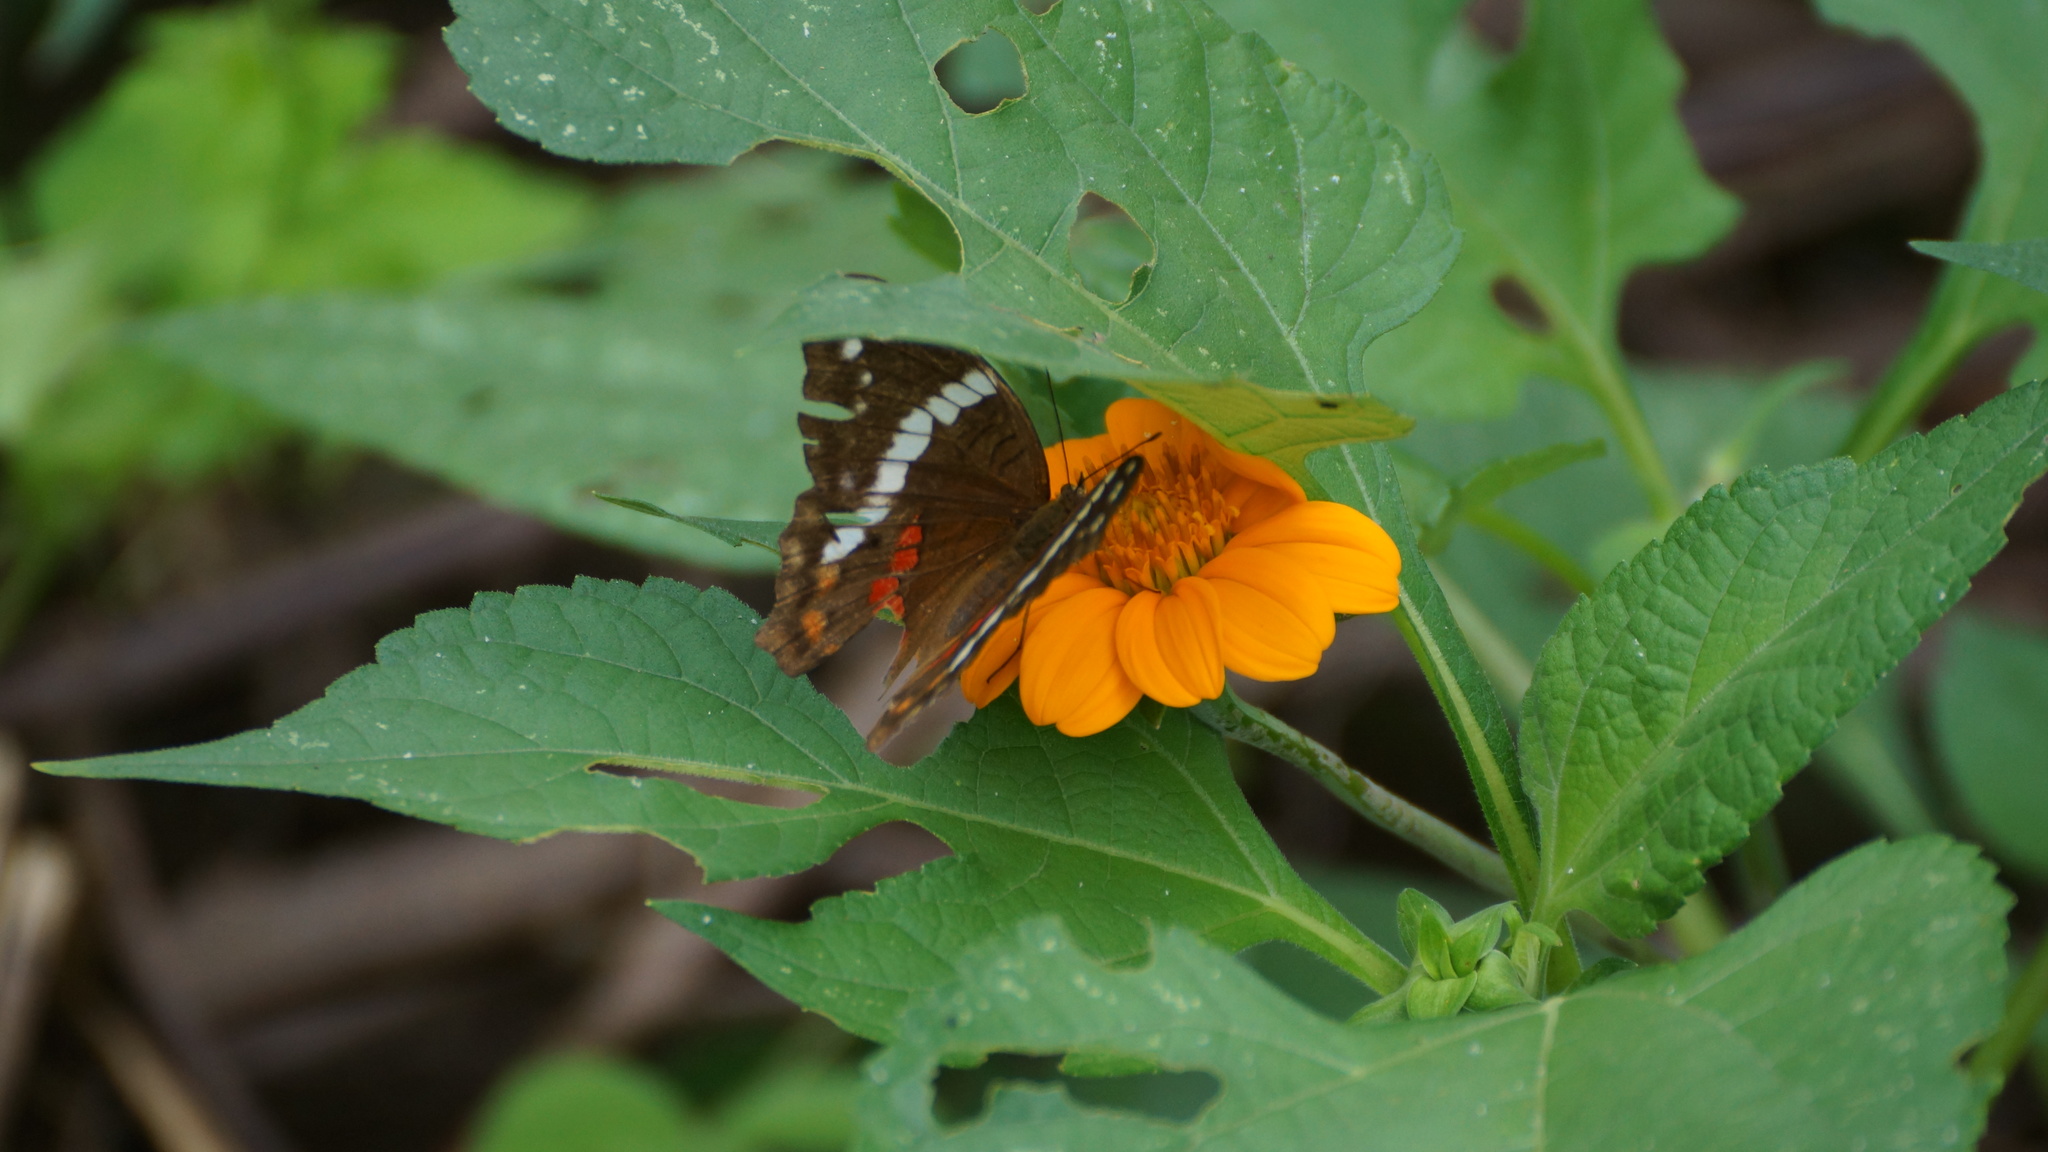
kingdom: Animalia
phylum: Arthropoda
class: Insecta
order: Lepidoptera
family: Nymphalidae
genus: Anartia
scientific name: Anartia fatima
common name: Banded peacock
